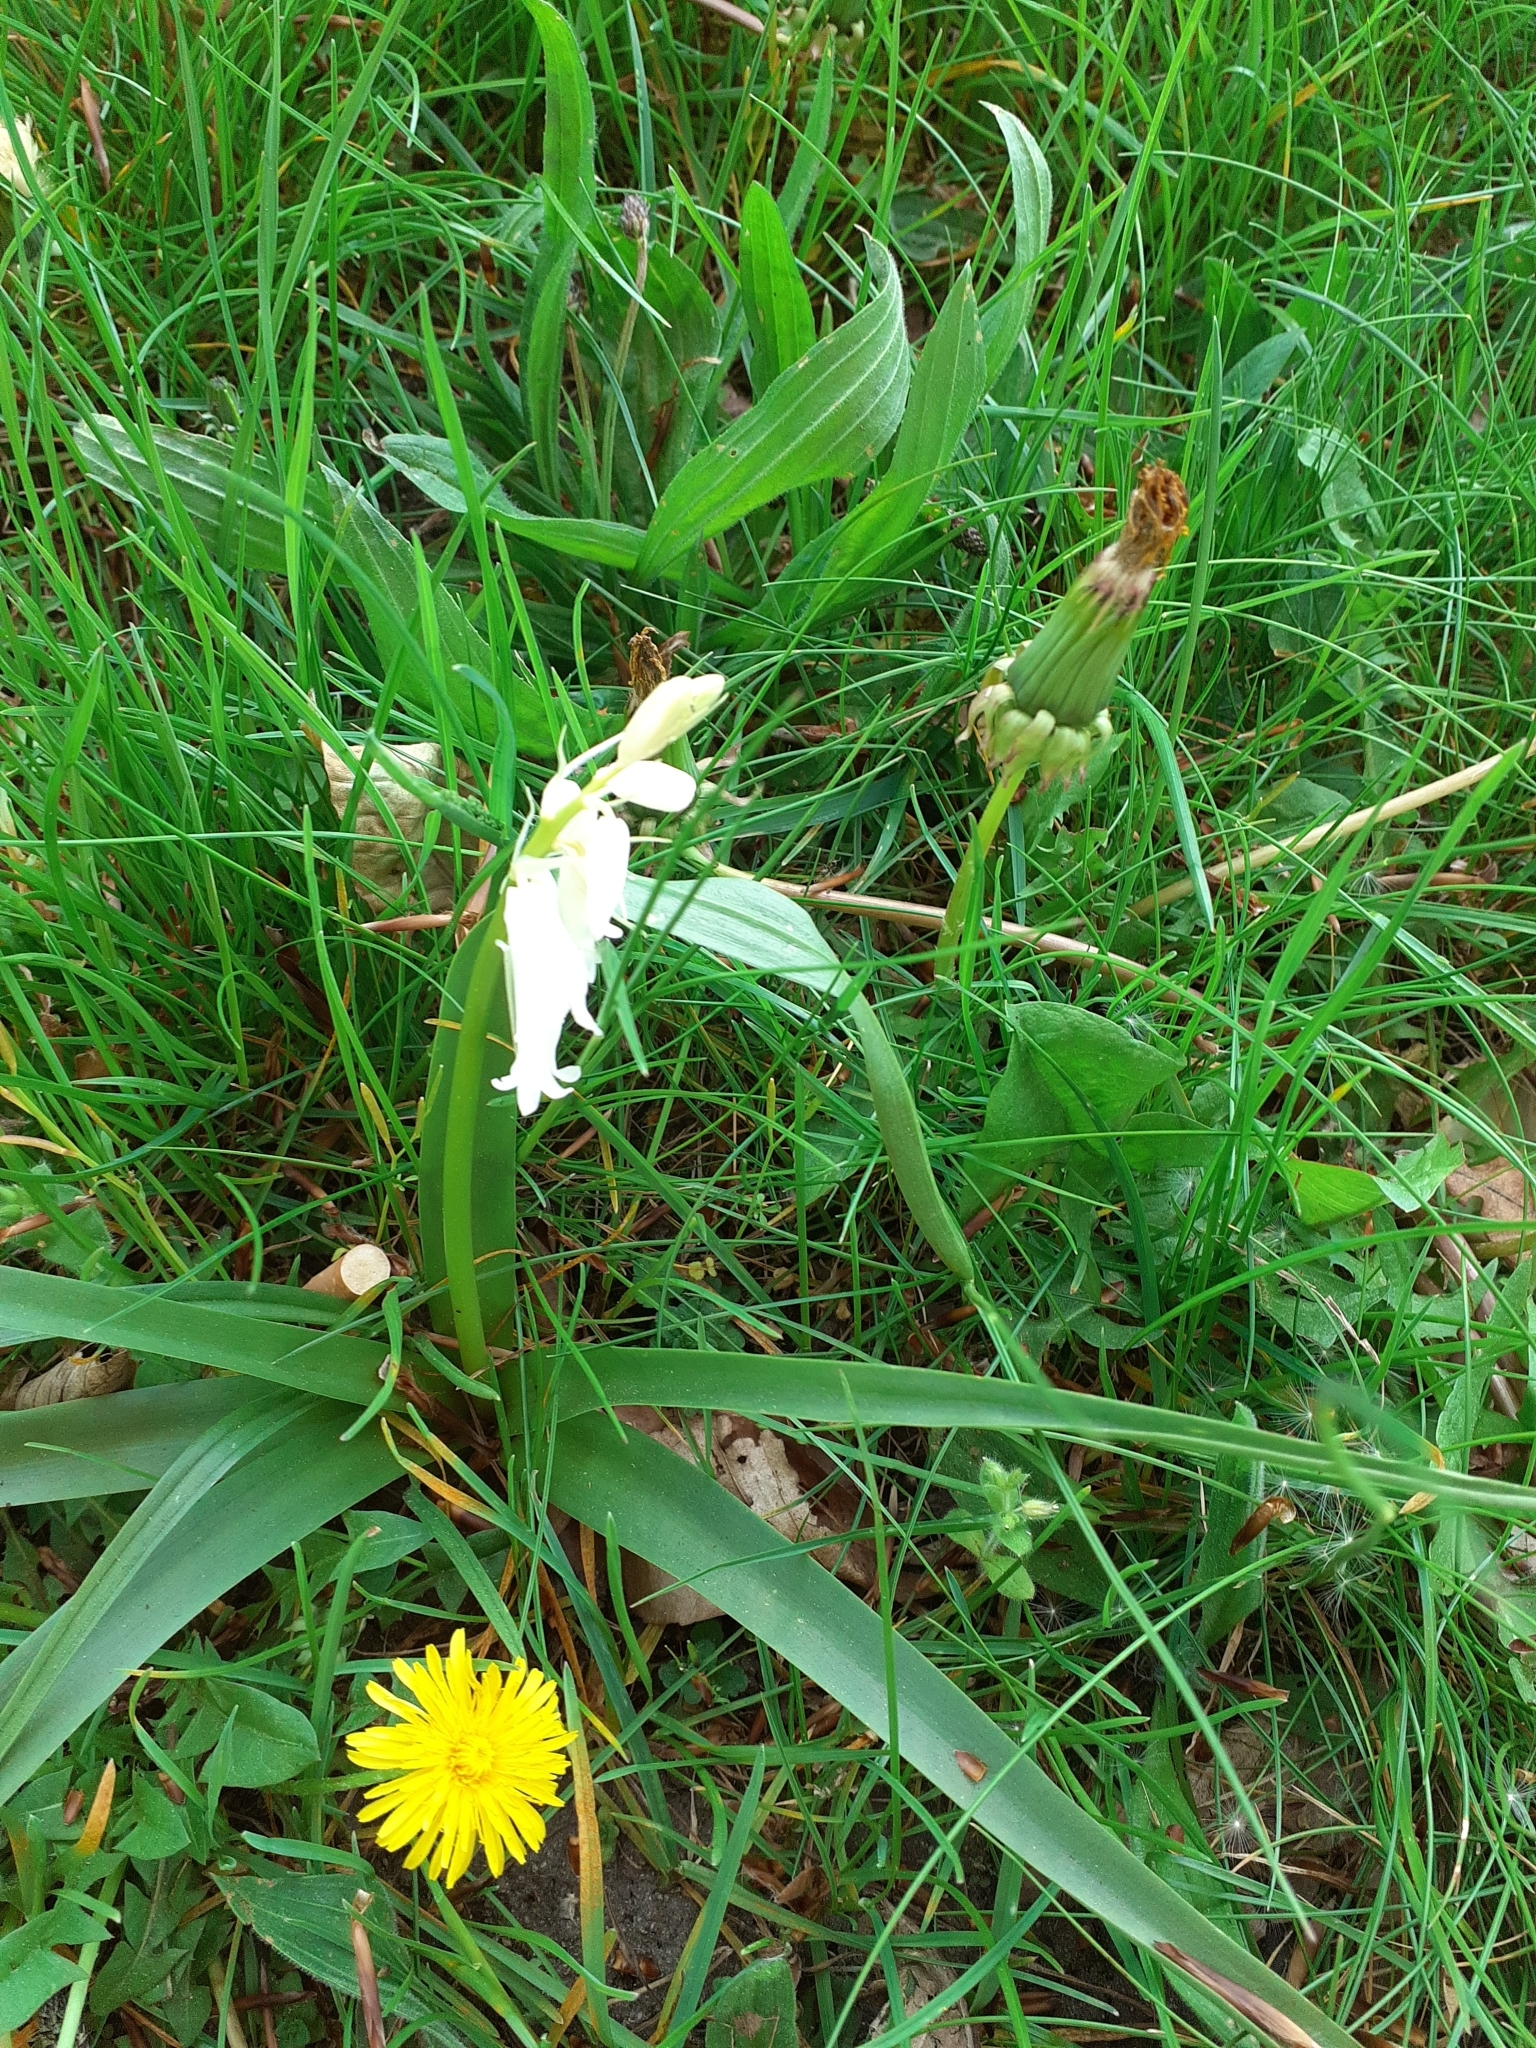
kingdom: Plantae
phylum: Tracheophyta
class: Liliopsida
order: Asparagales
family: Asparagaceae
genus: Hyacinthoides
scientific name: Hyacinthoides massartiana
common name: Hyacinthoides
